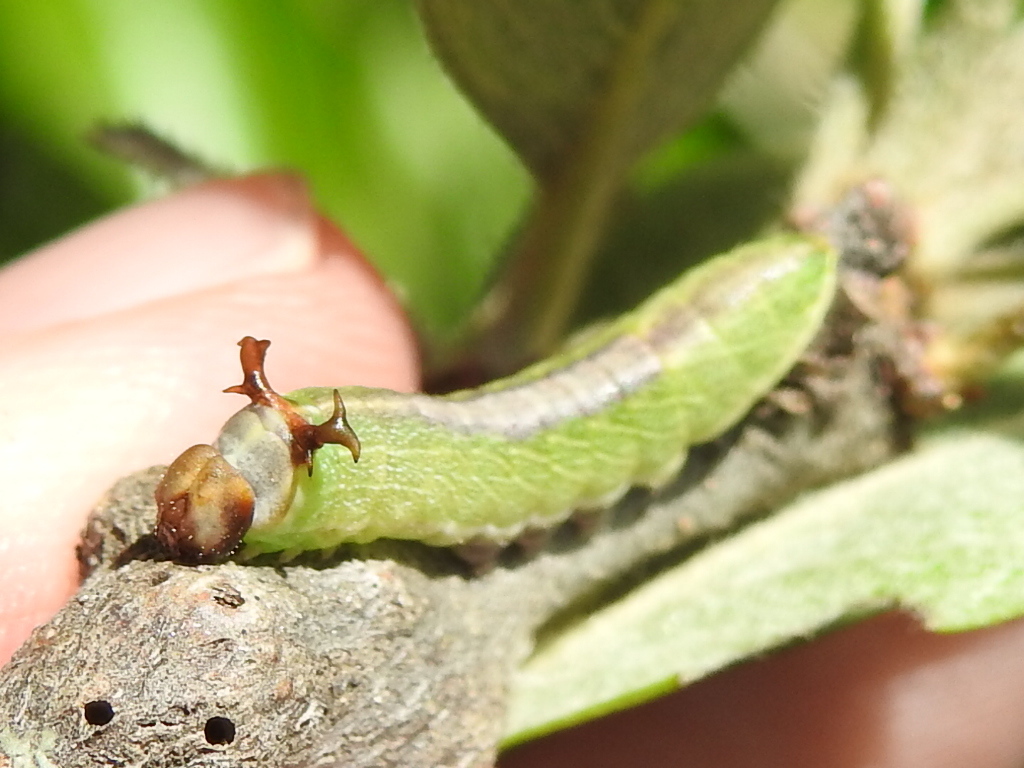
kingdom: Animalia
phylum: Arthropoda
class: Insecta
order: Lepidoptera
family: Notodontidae
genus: Litodonta
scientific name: Litodonta hydromeli
